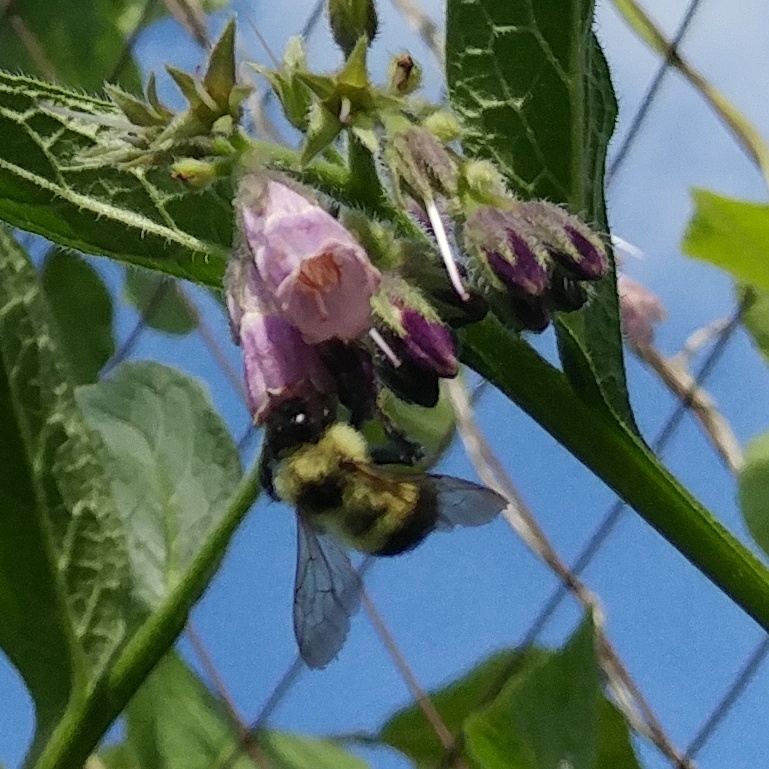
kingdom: Animalia
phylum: Arthropoda
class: Insecta
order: Hymenoptera
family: Apidae
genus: Bombus
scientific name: Bombus vagans
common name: Half-black bumble bee
